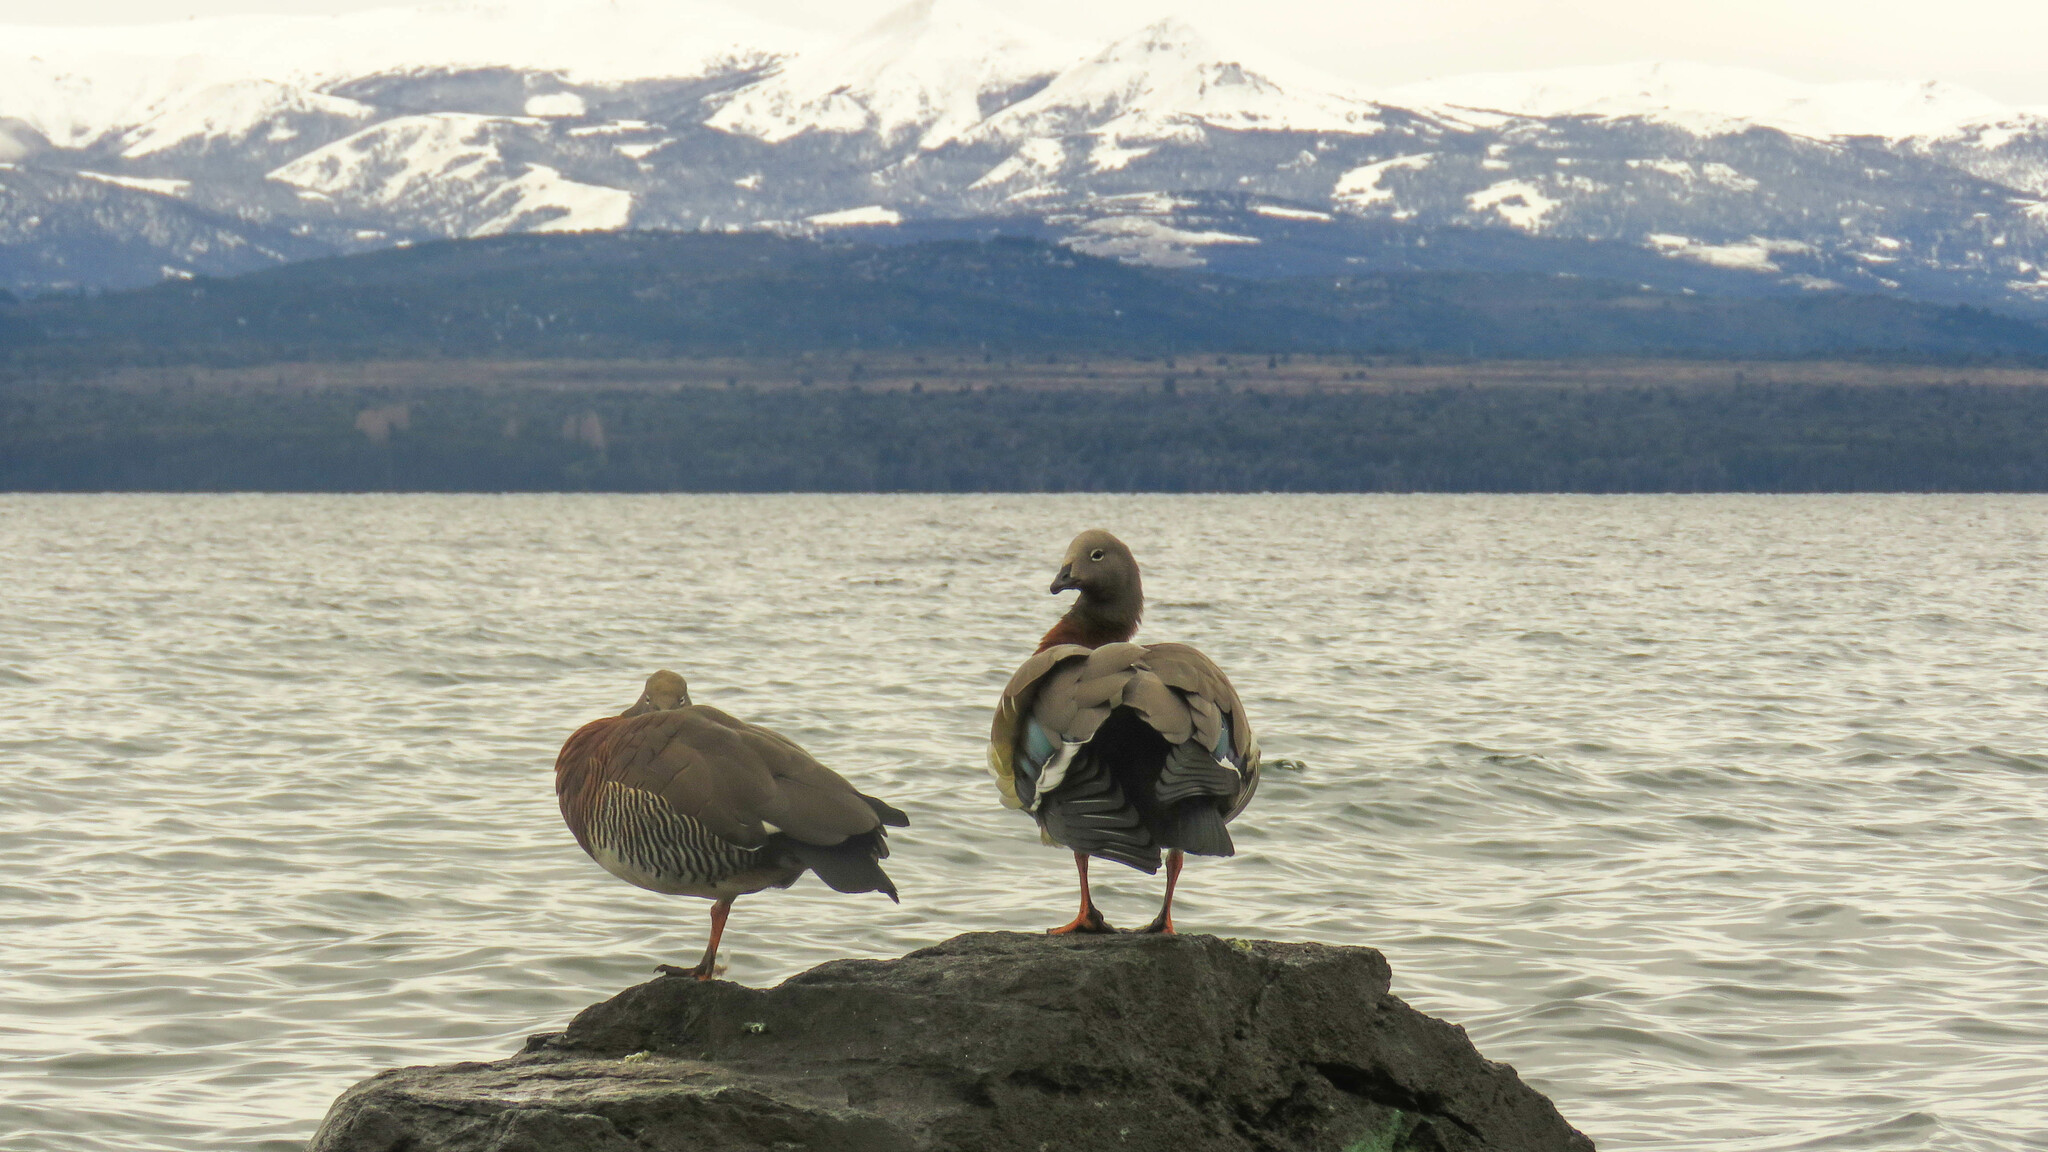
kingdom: Animalia
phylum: Chordata
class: Aves
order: Anseriformes
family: Anatidae
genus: Chloephaga
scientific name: Chloephaga poliocephala
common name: Ashy-headed goose
